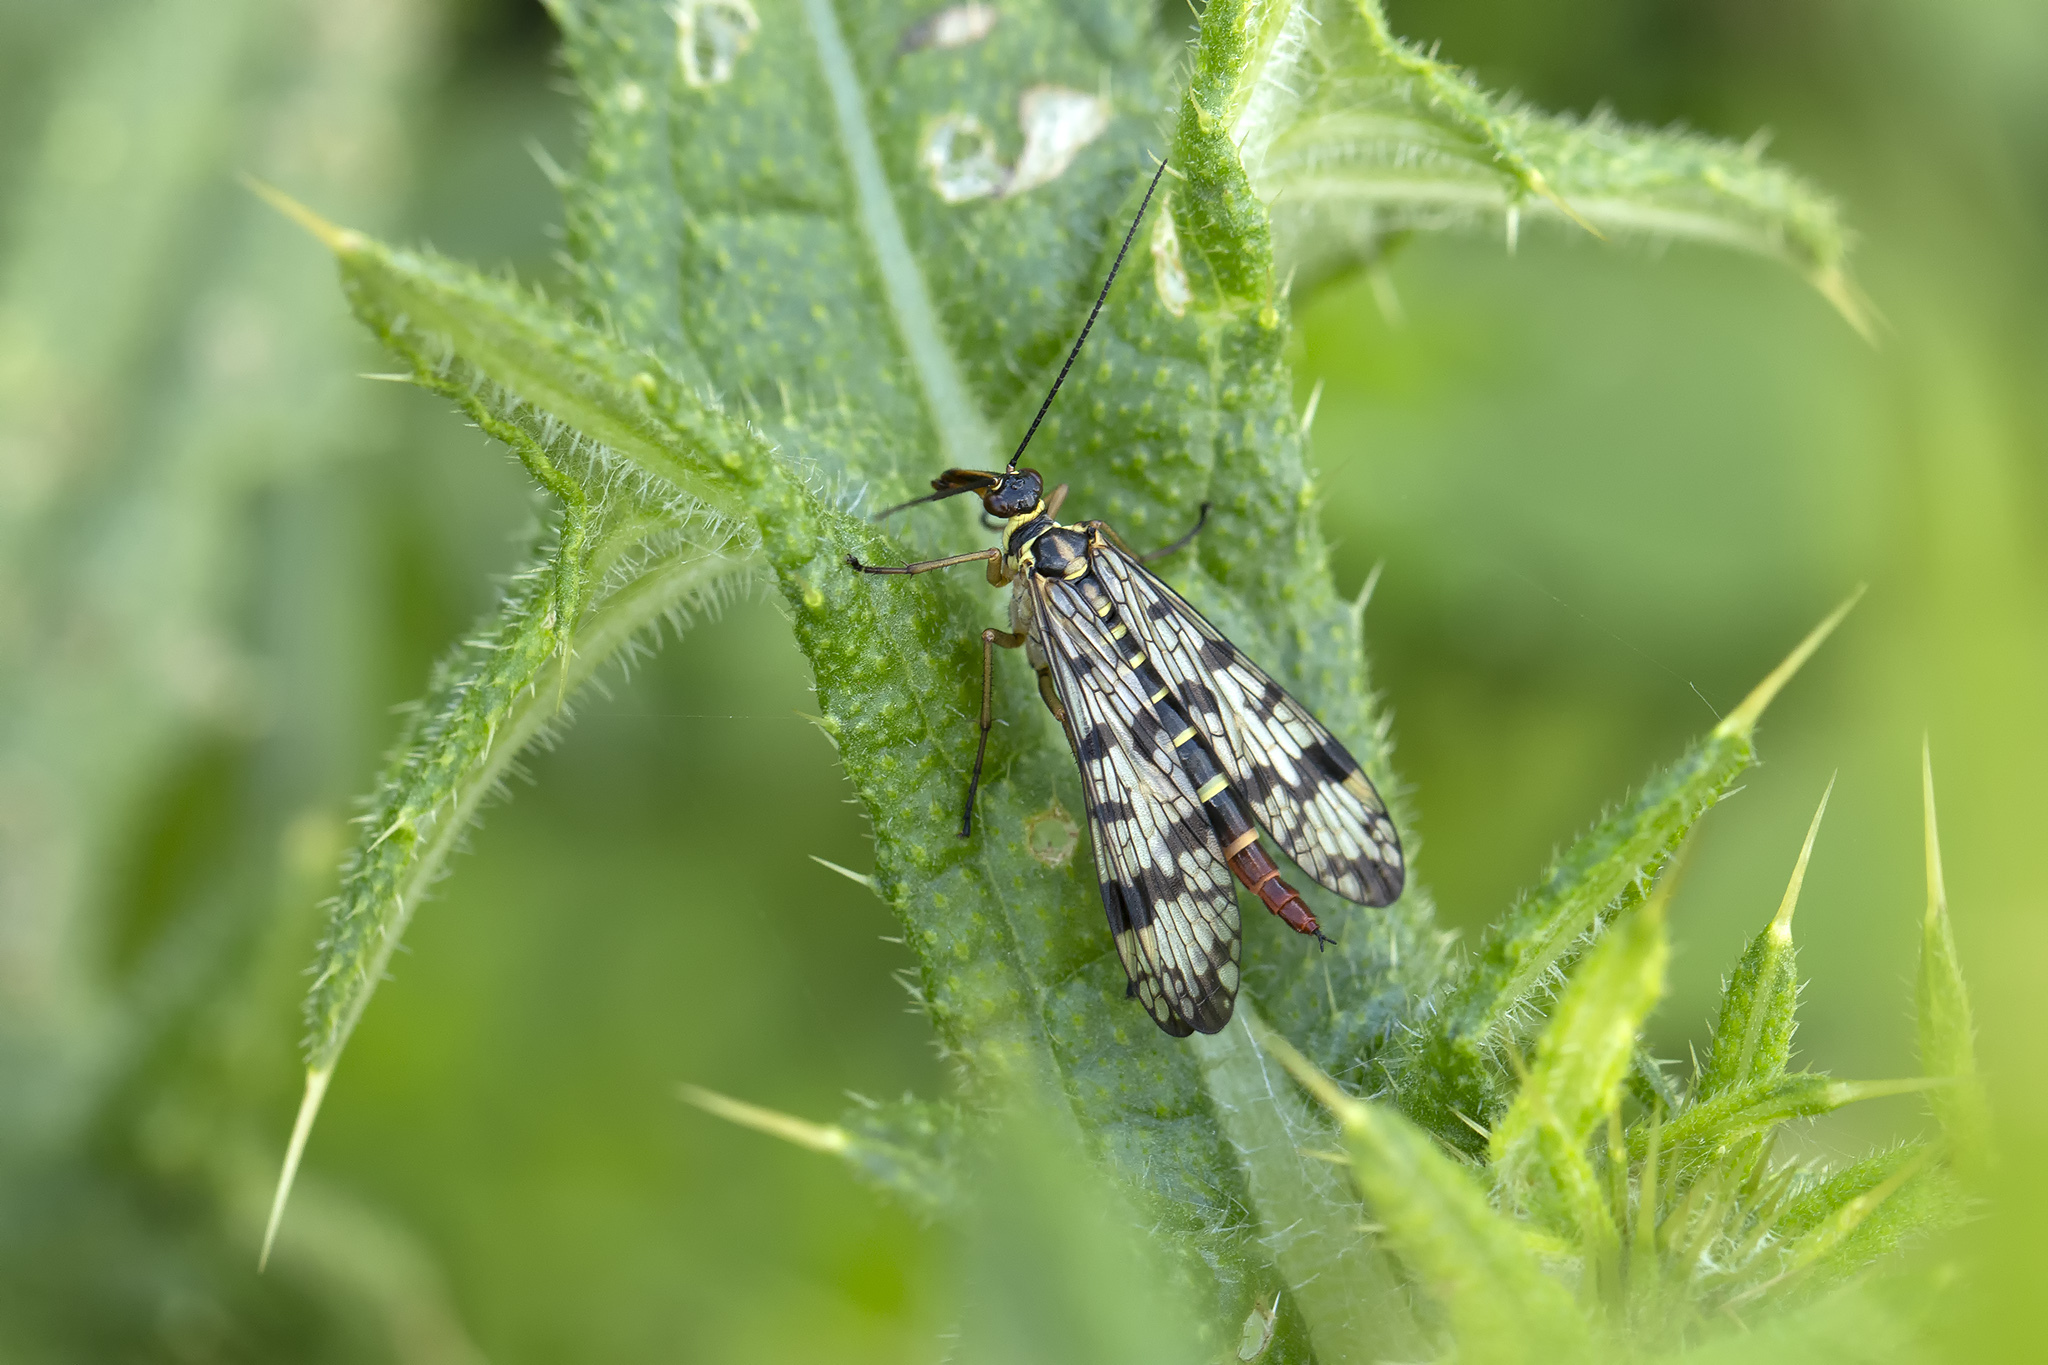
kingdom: Animalia
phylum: Arthropoda
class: Insecta
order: Mecoptera
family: Panorpidae
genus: Panorpa
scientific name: Panorpa communis
